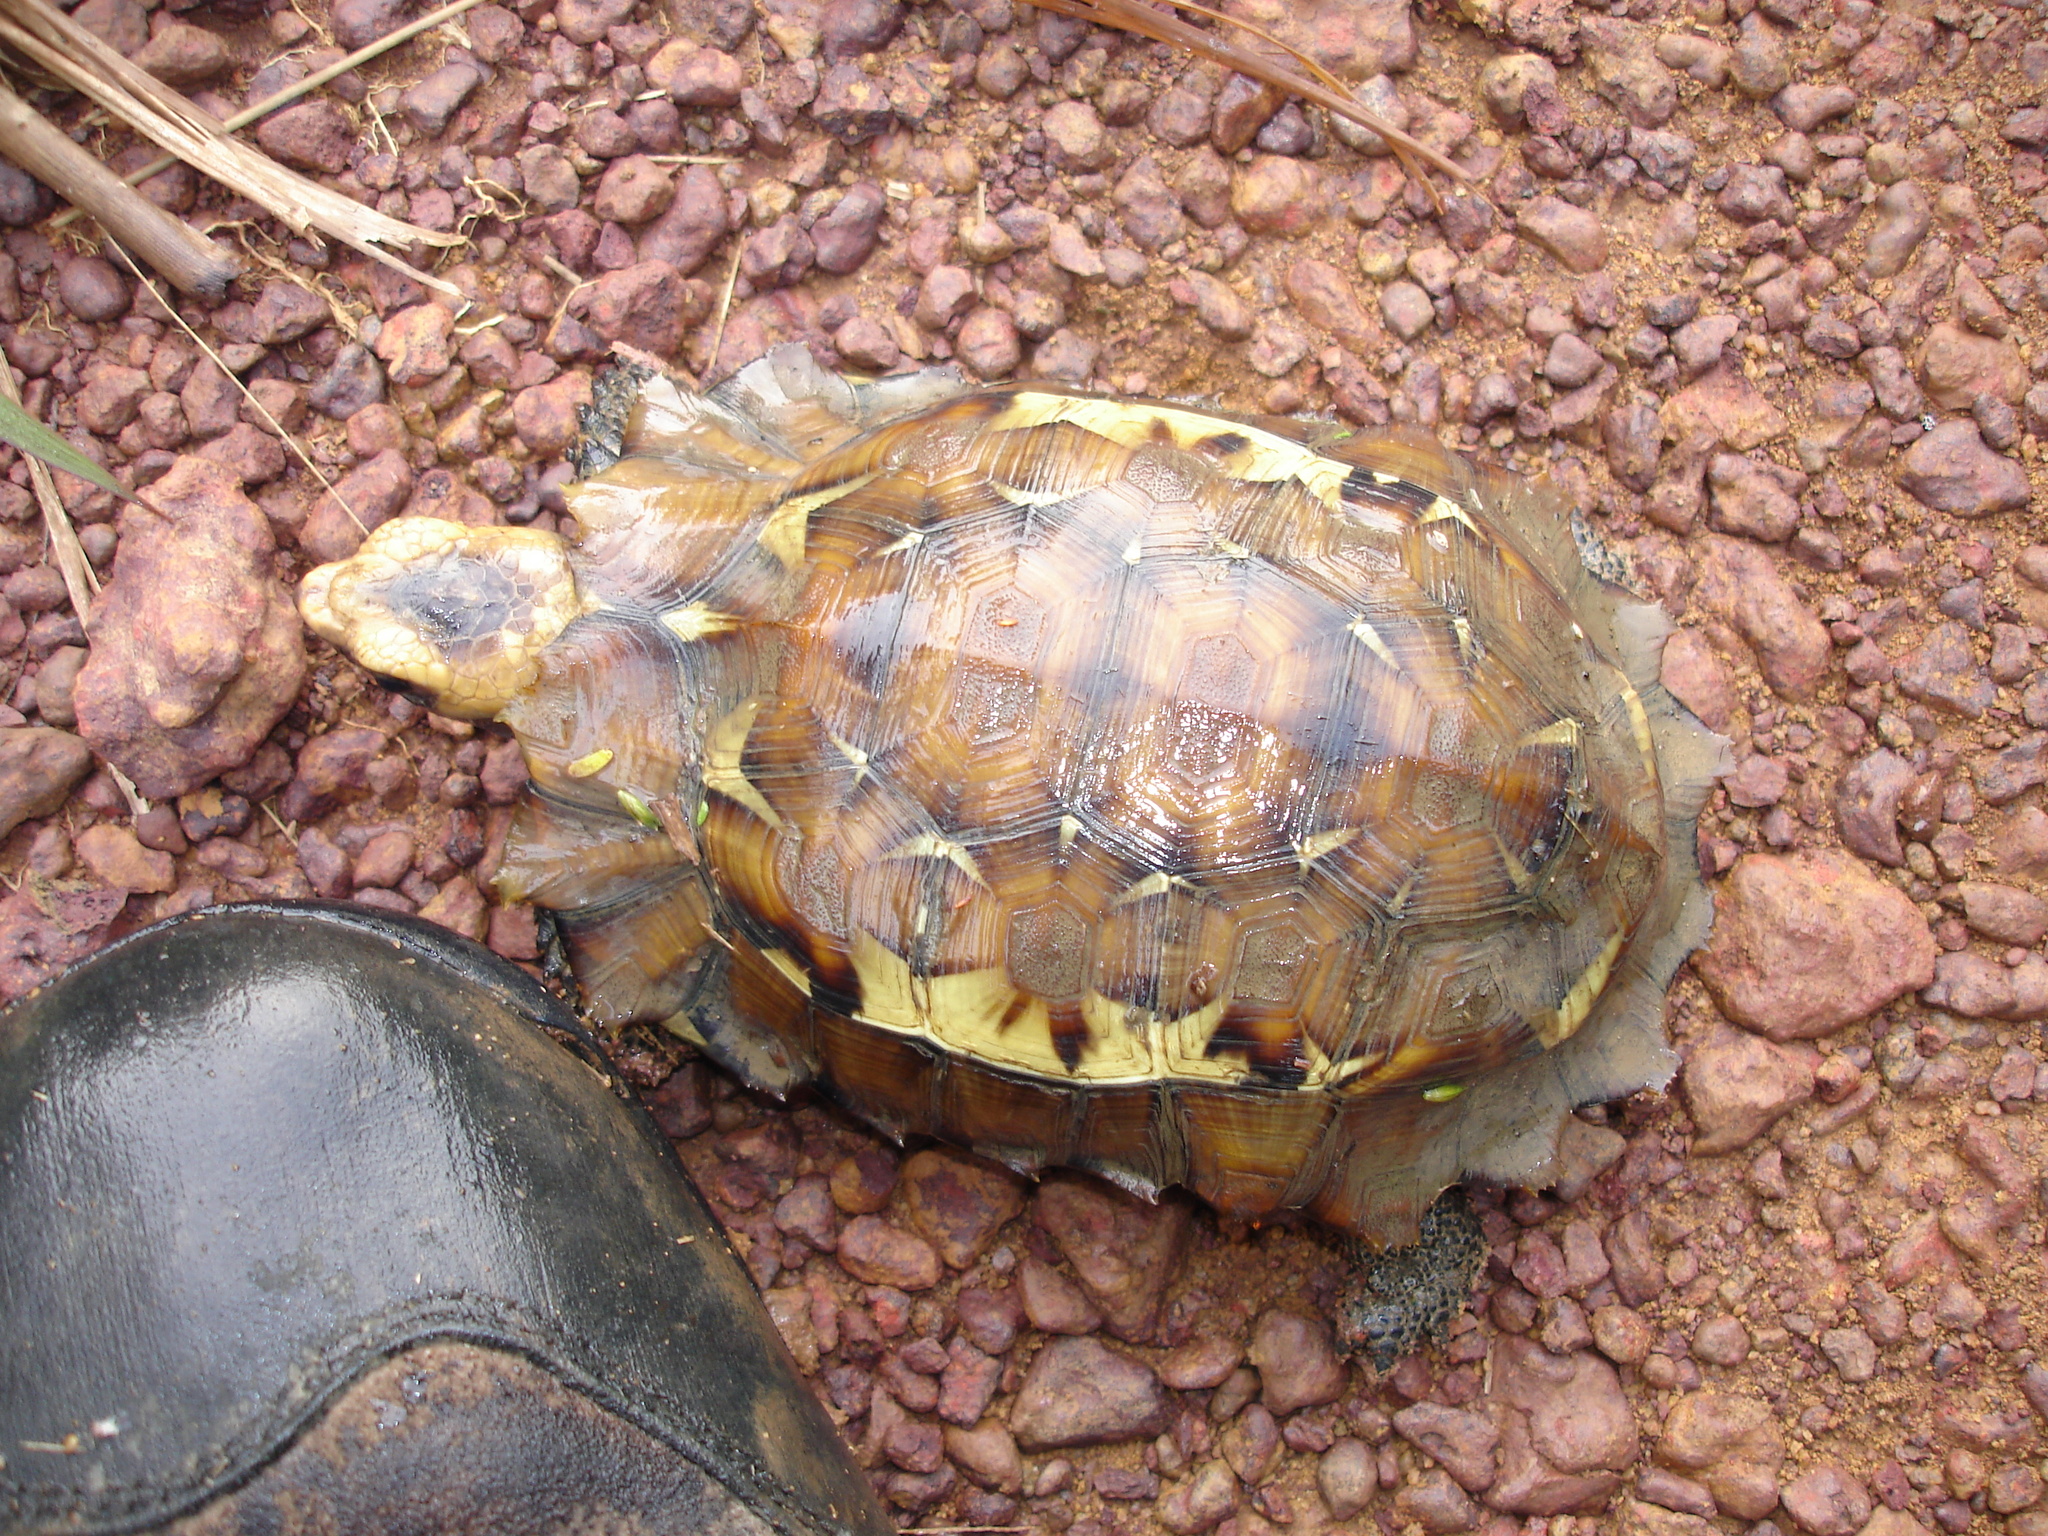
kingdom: Animalia
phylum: Chordata
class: Testudines
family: Testudinidae
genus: Kinixys
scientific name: Kinixys erosa
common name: Serrated hinge-back tortoise
